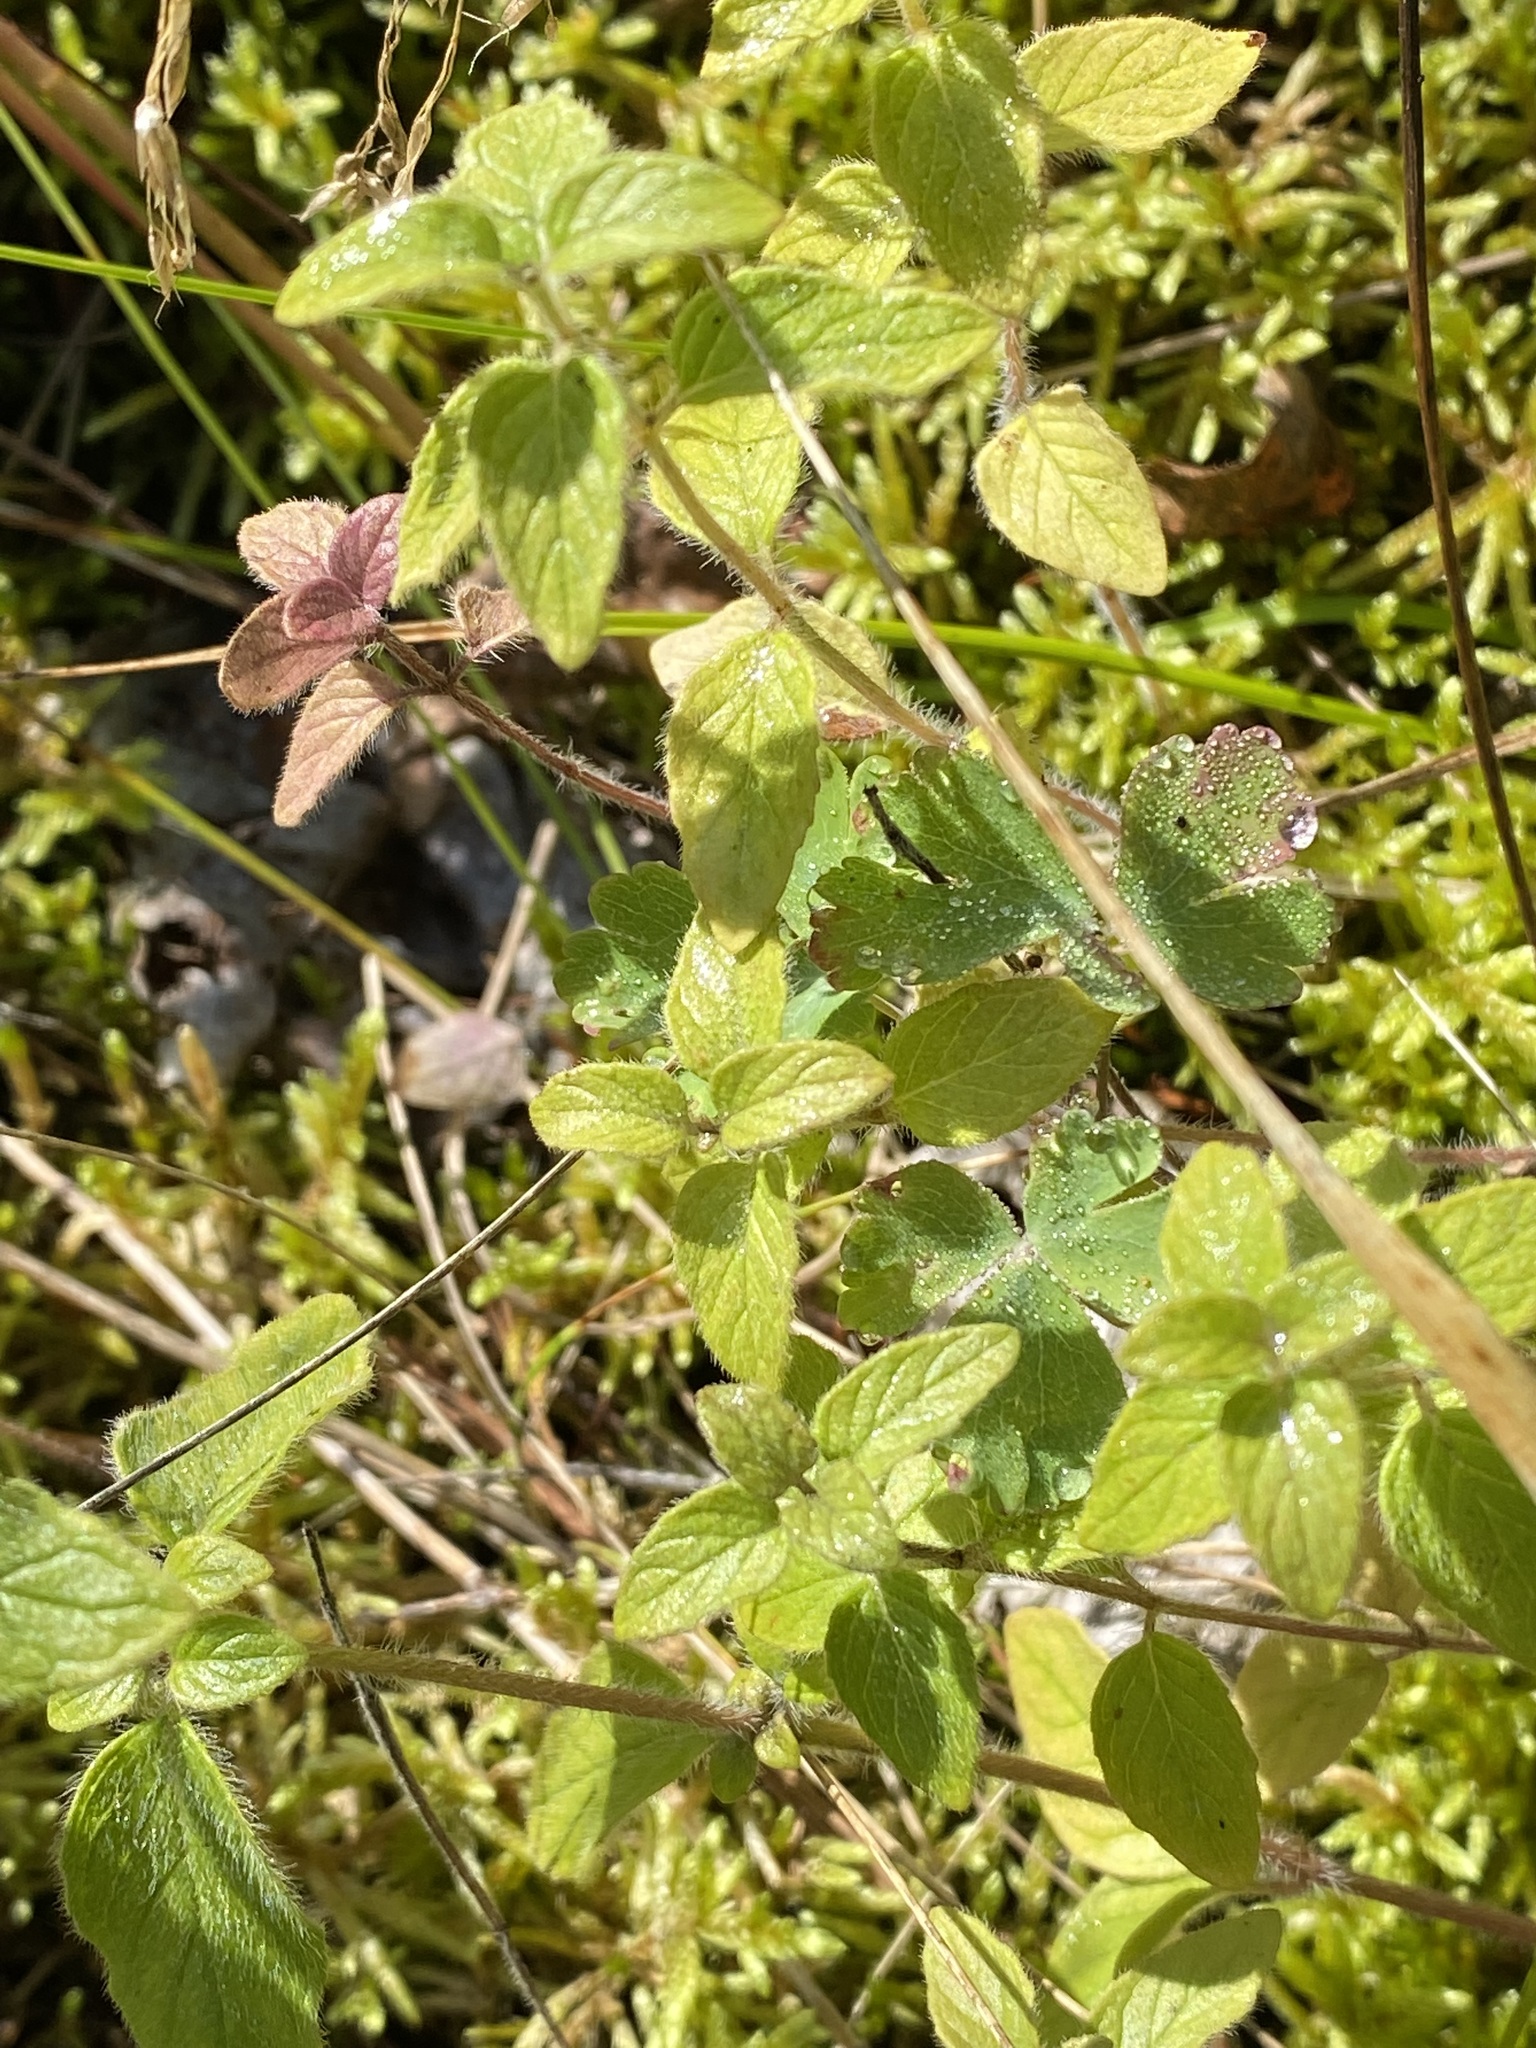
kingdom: Plantae
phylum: Tracheophyta
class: Magnoliopsida
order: Lamiales
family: Lamiaceae
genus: Clinopodium
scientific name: Clinopodium vulgare
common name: Wild basil
